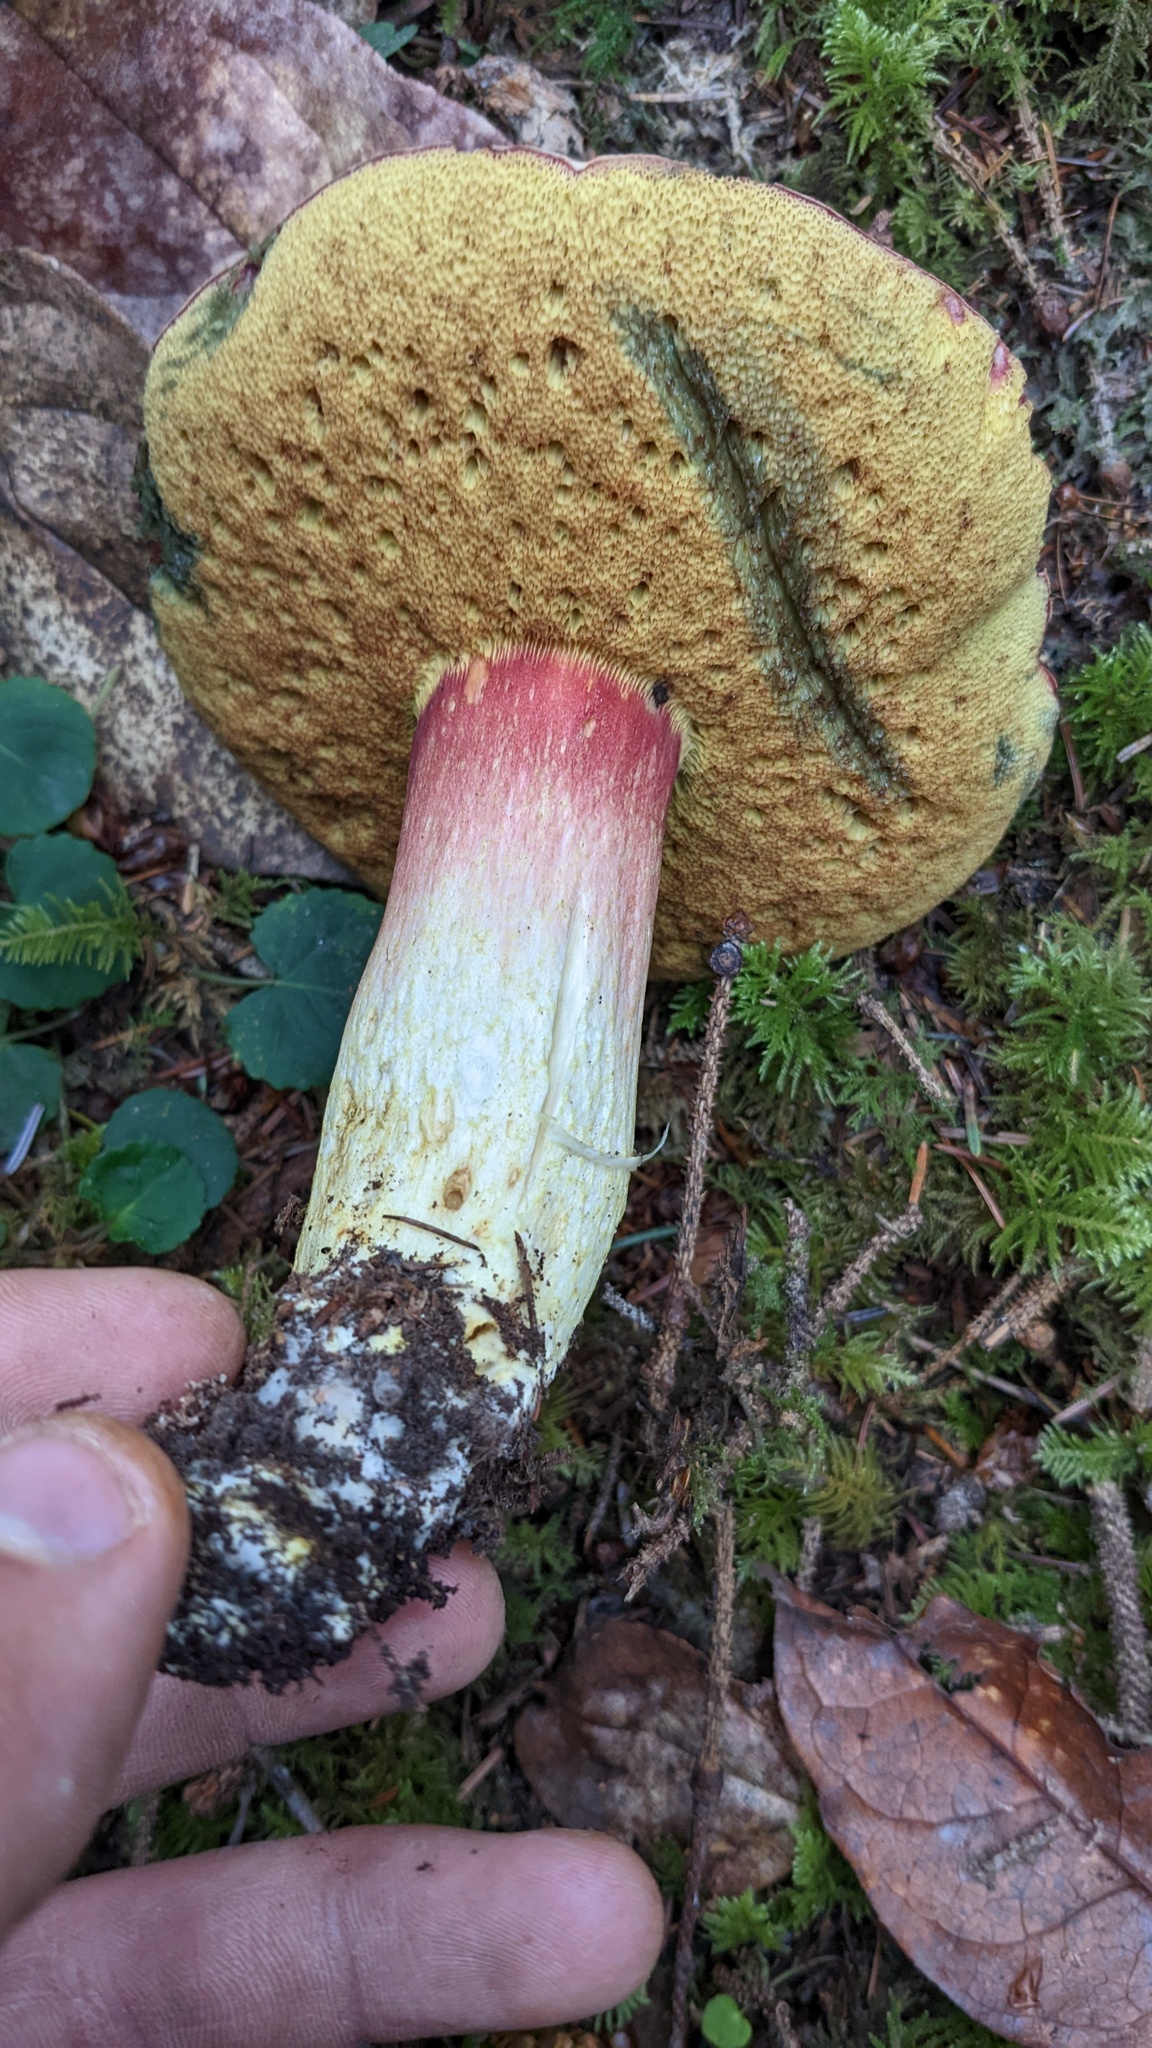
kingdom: Fungi
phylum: Basidiomycota
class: Agaricomycetes
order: Boletales
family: Boletaceae
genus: Boletus
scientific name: Boletus smithii
